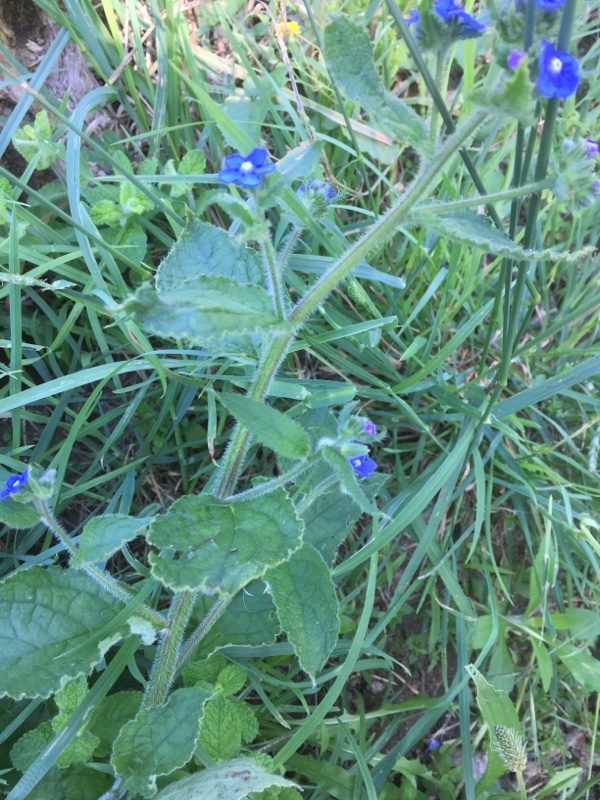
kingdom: Plantae
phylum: Tracheophyta
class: Magnoliopsida
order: Boraginales
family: Boraginaceae
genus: Pentaglottis
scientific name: Pentaglottis sempervirens
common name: Green alkanet
